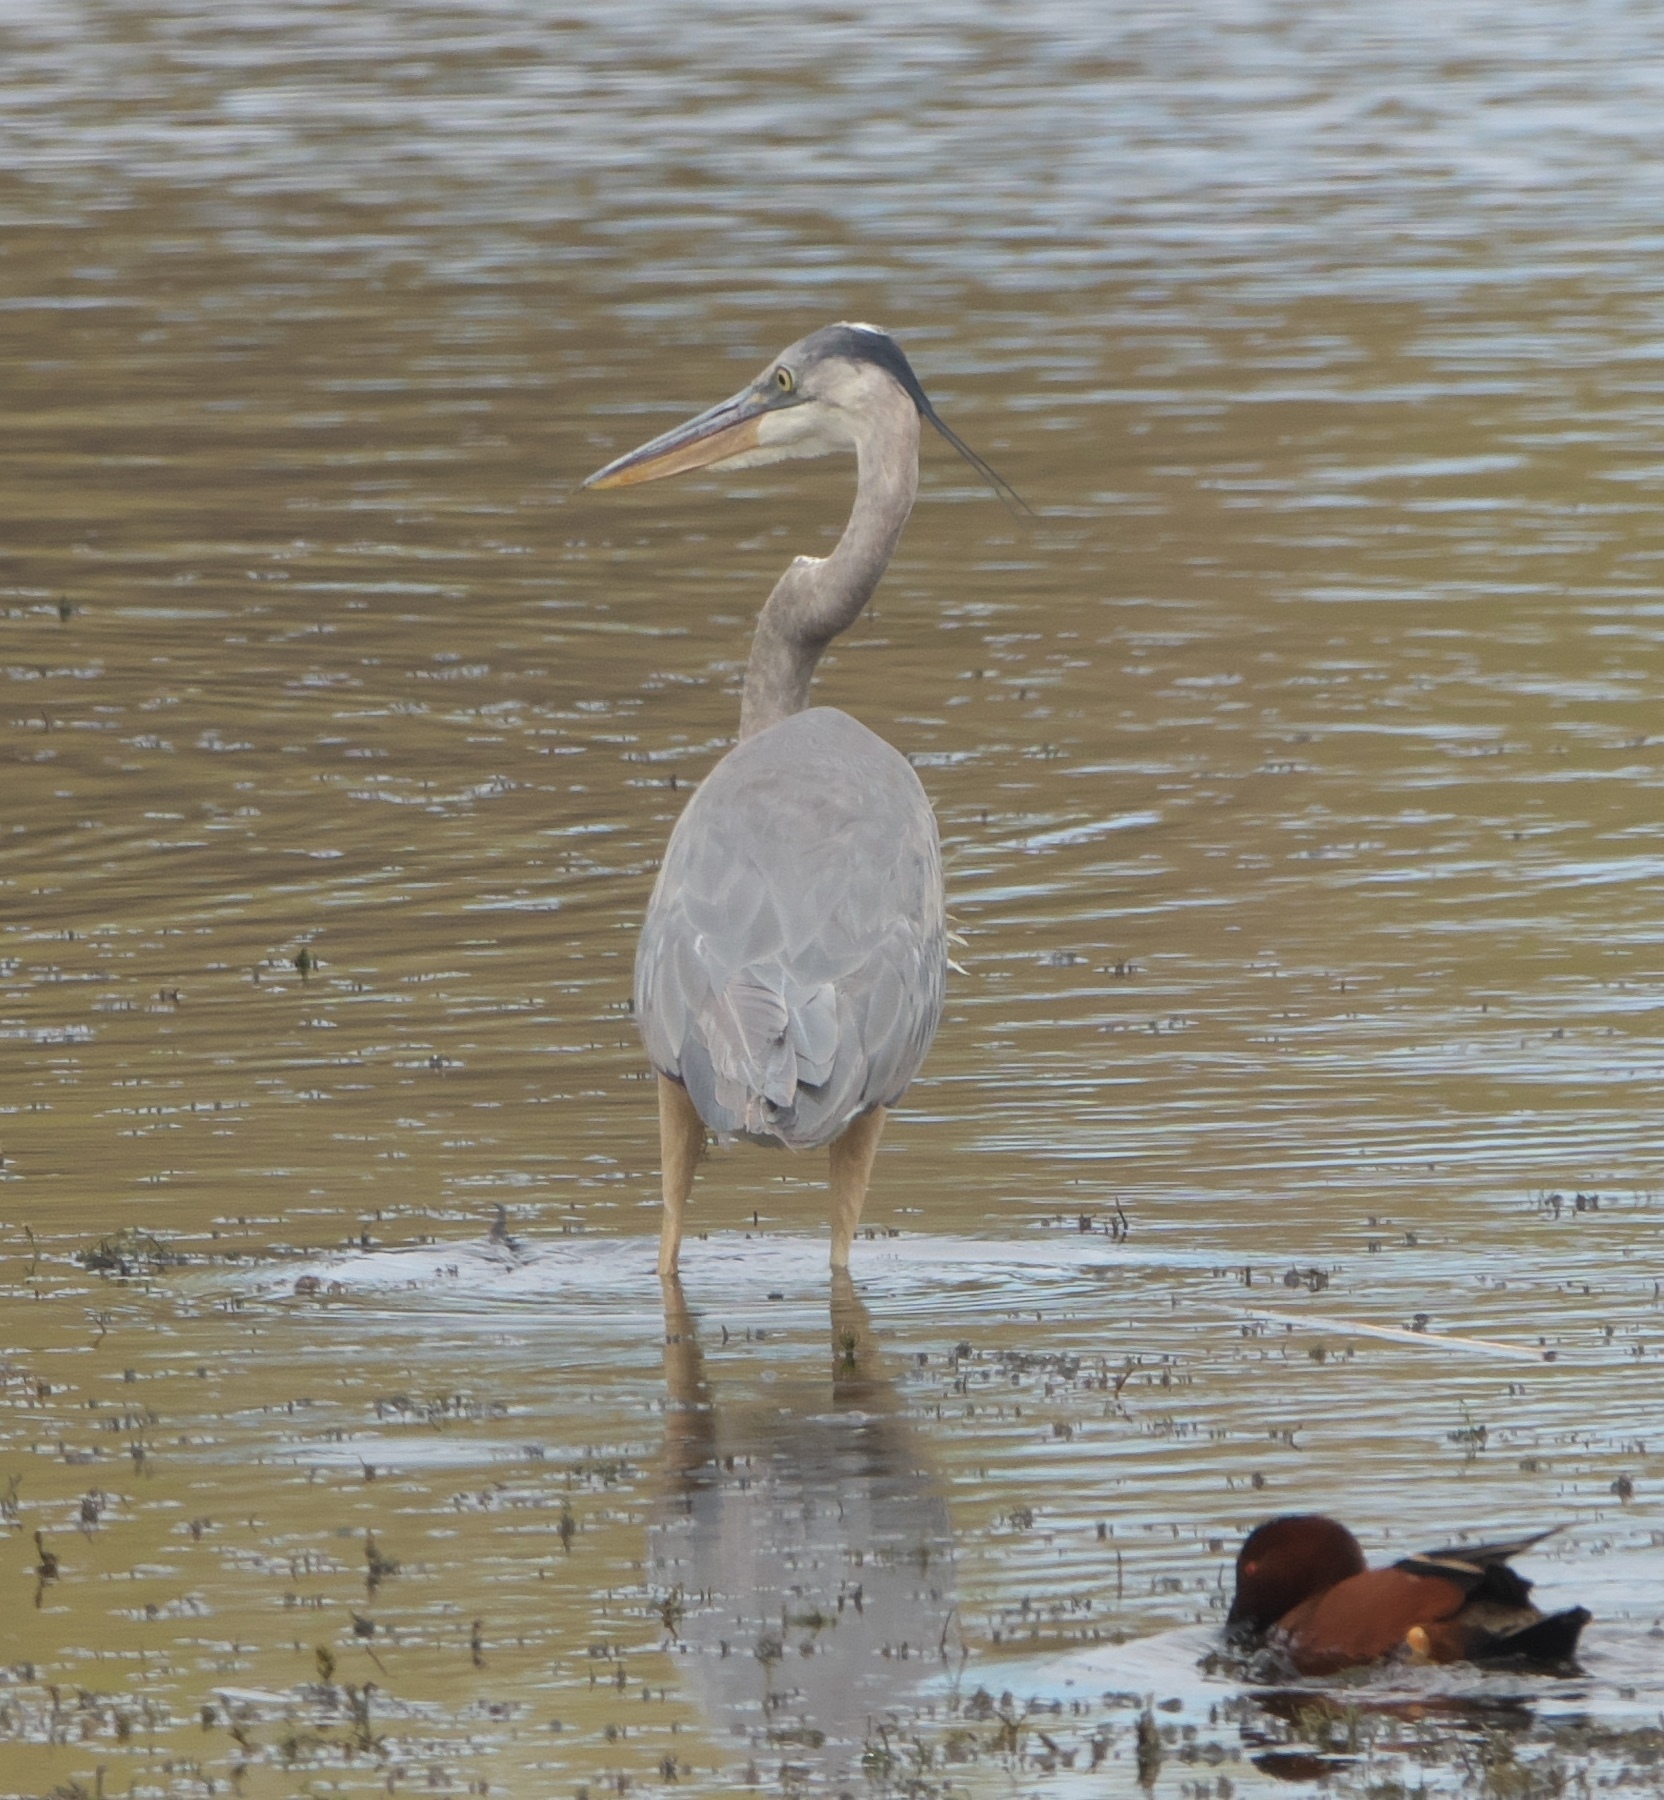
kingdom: Animalia
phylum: Chordata
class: Aves
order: Pelecaniformes
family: Ardeidae
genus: Ardea
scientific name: Ardea herodias
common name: Great blue heron
